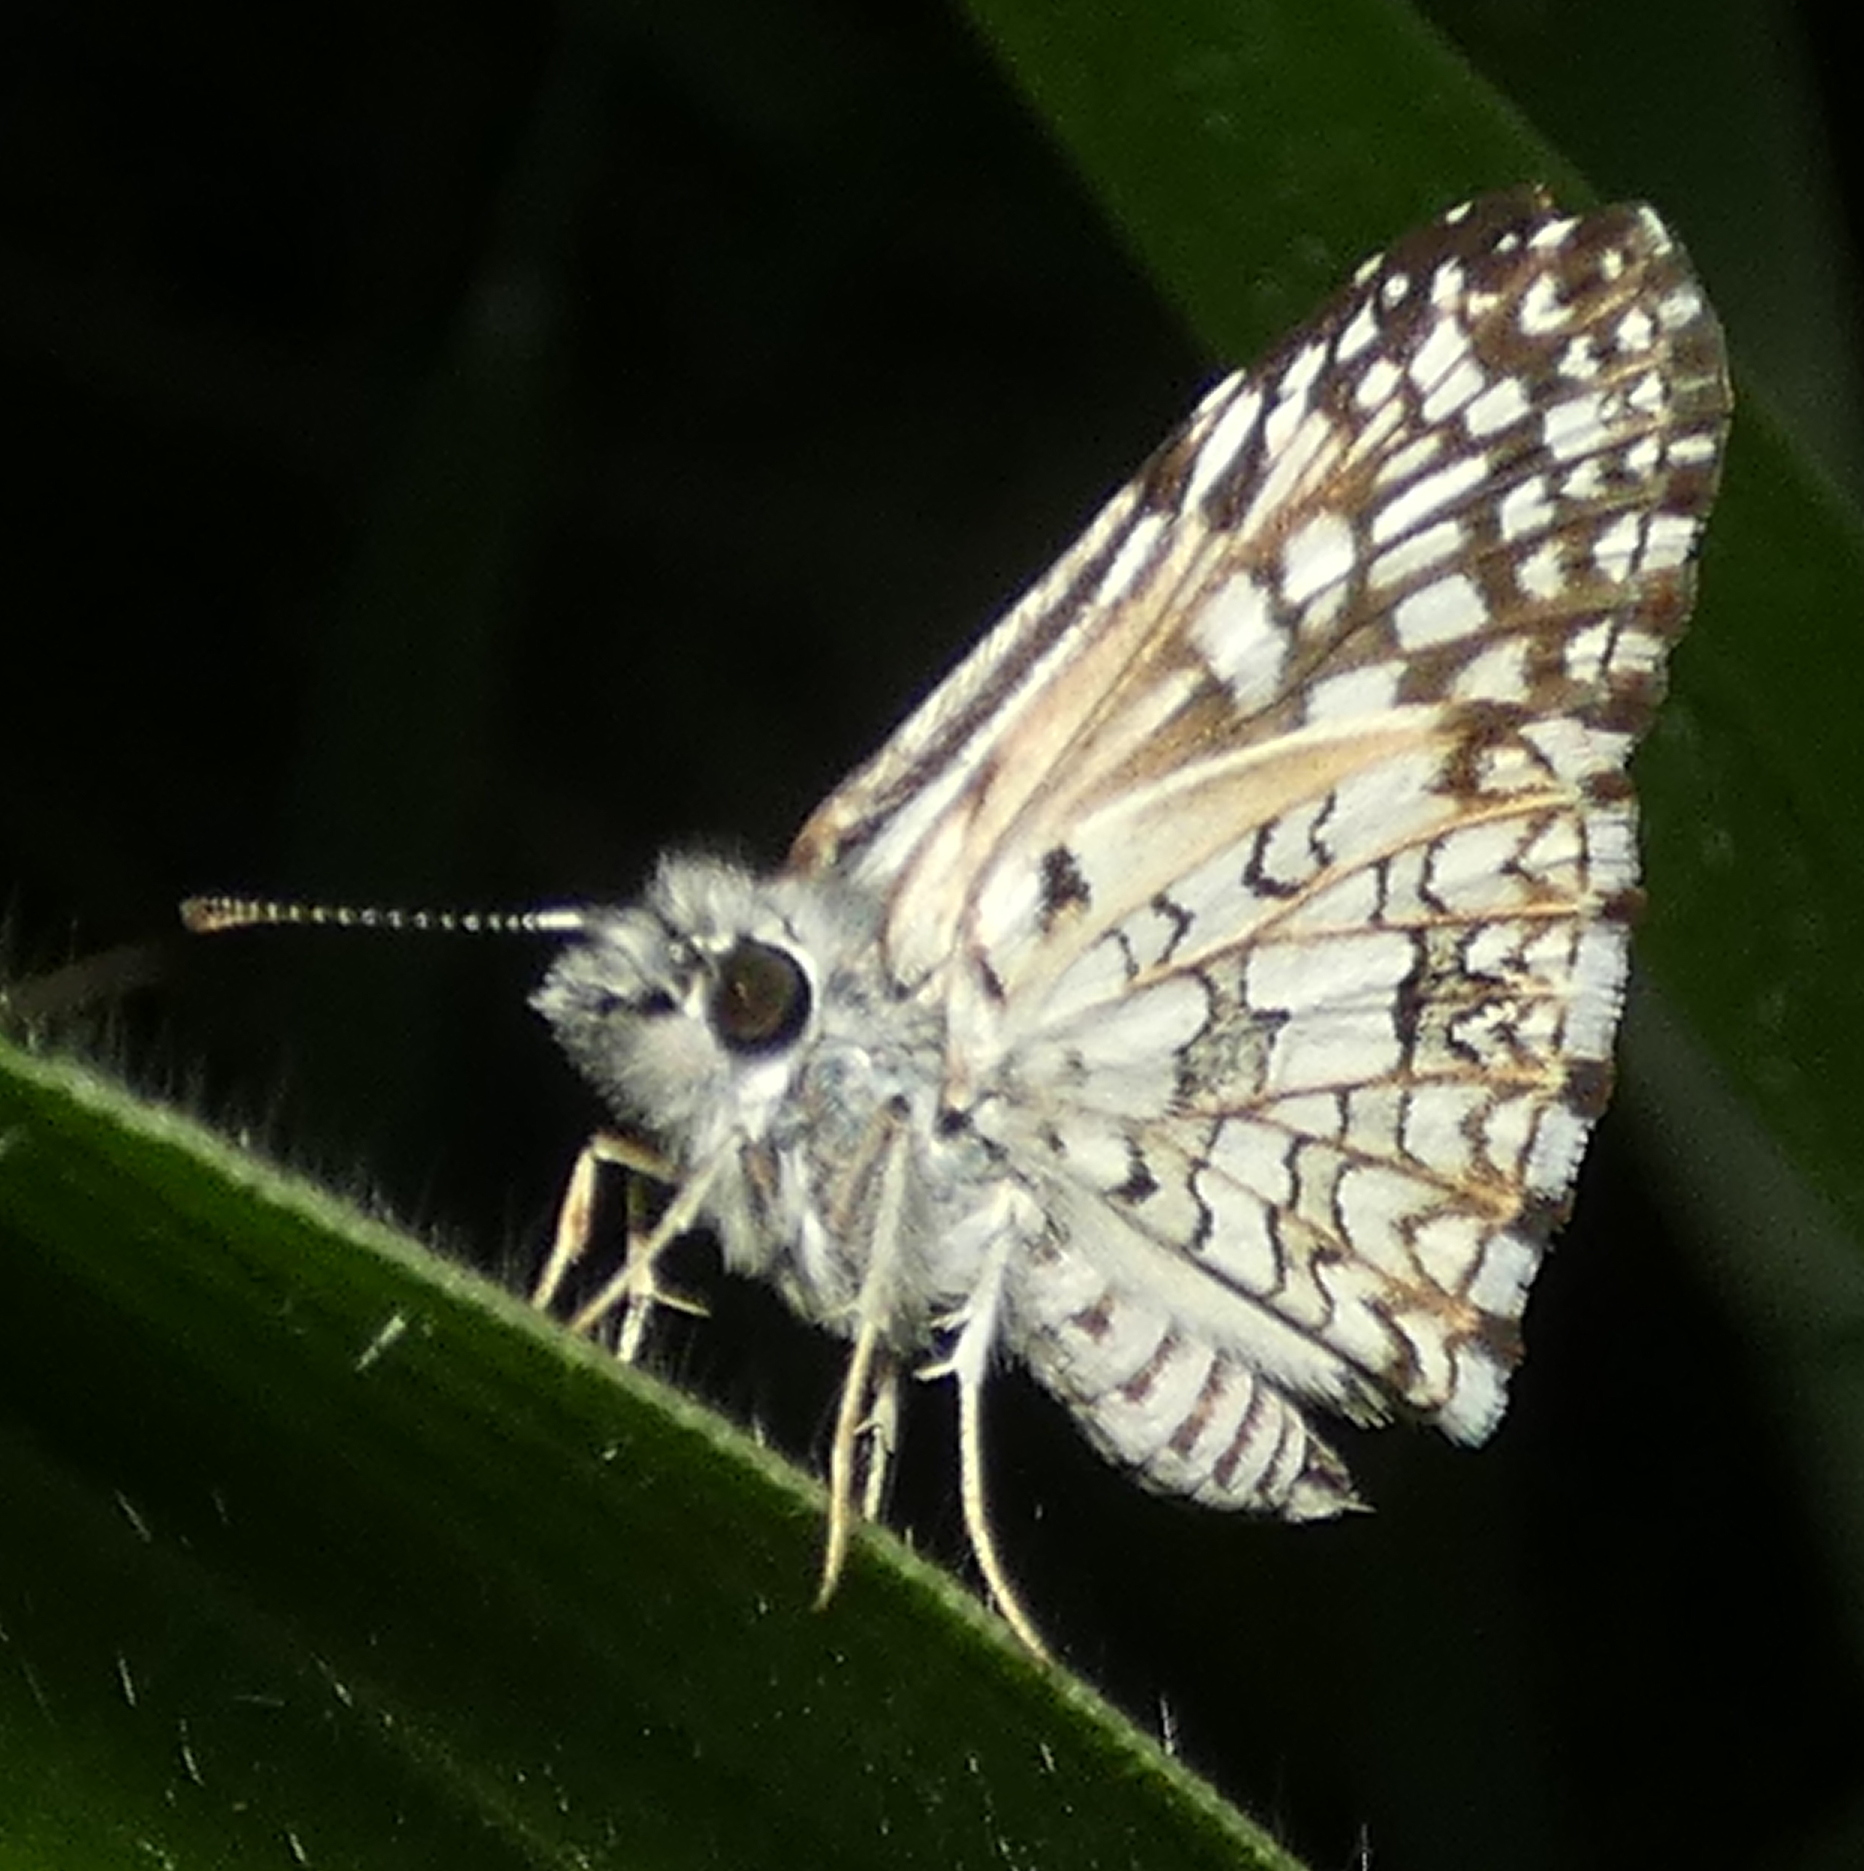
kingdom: Animalia
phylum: Arthropoda
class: Insecta
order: Lepidoptera
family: Hesperiidae
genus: Pyrgus
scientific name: Pyrgus oileus
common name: Tropical checkered-skipper
